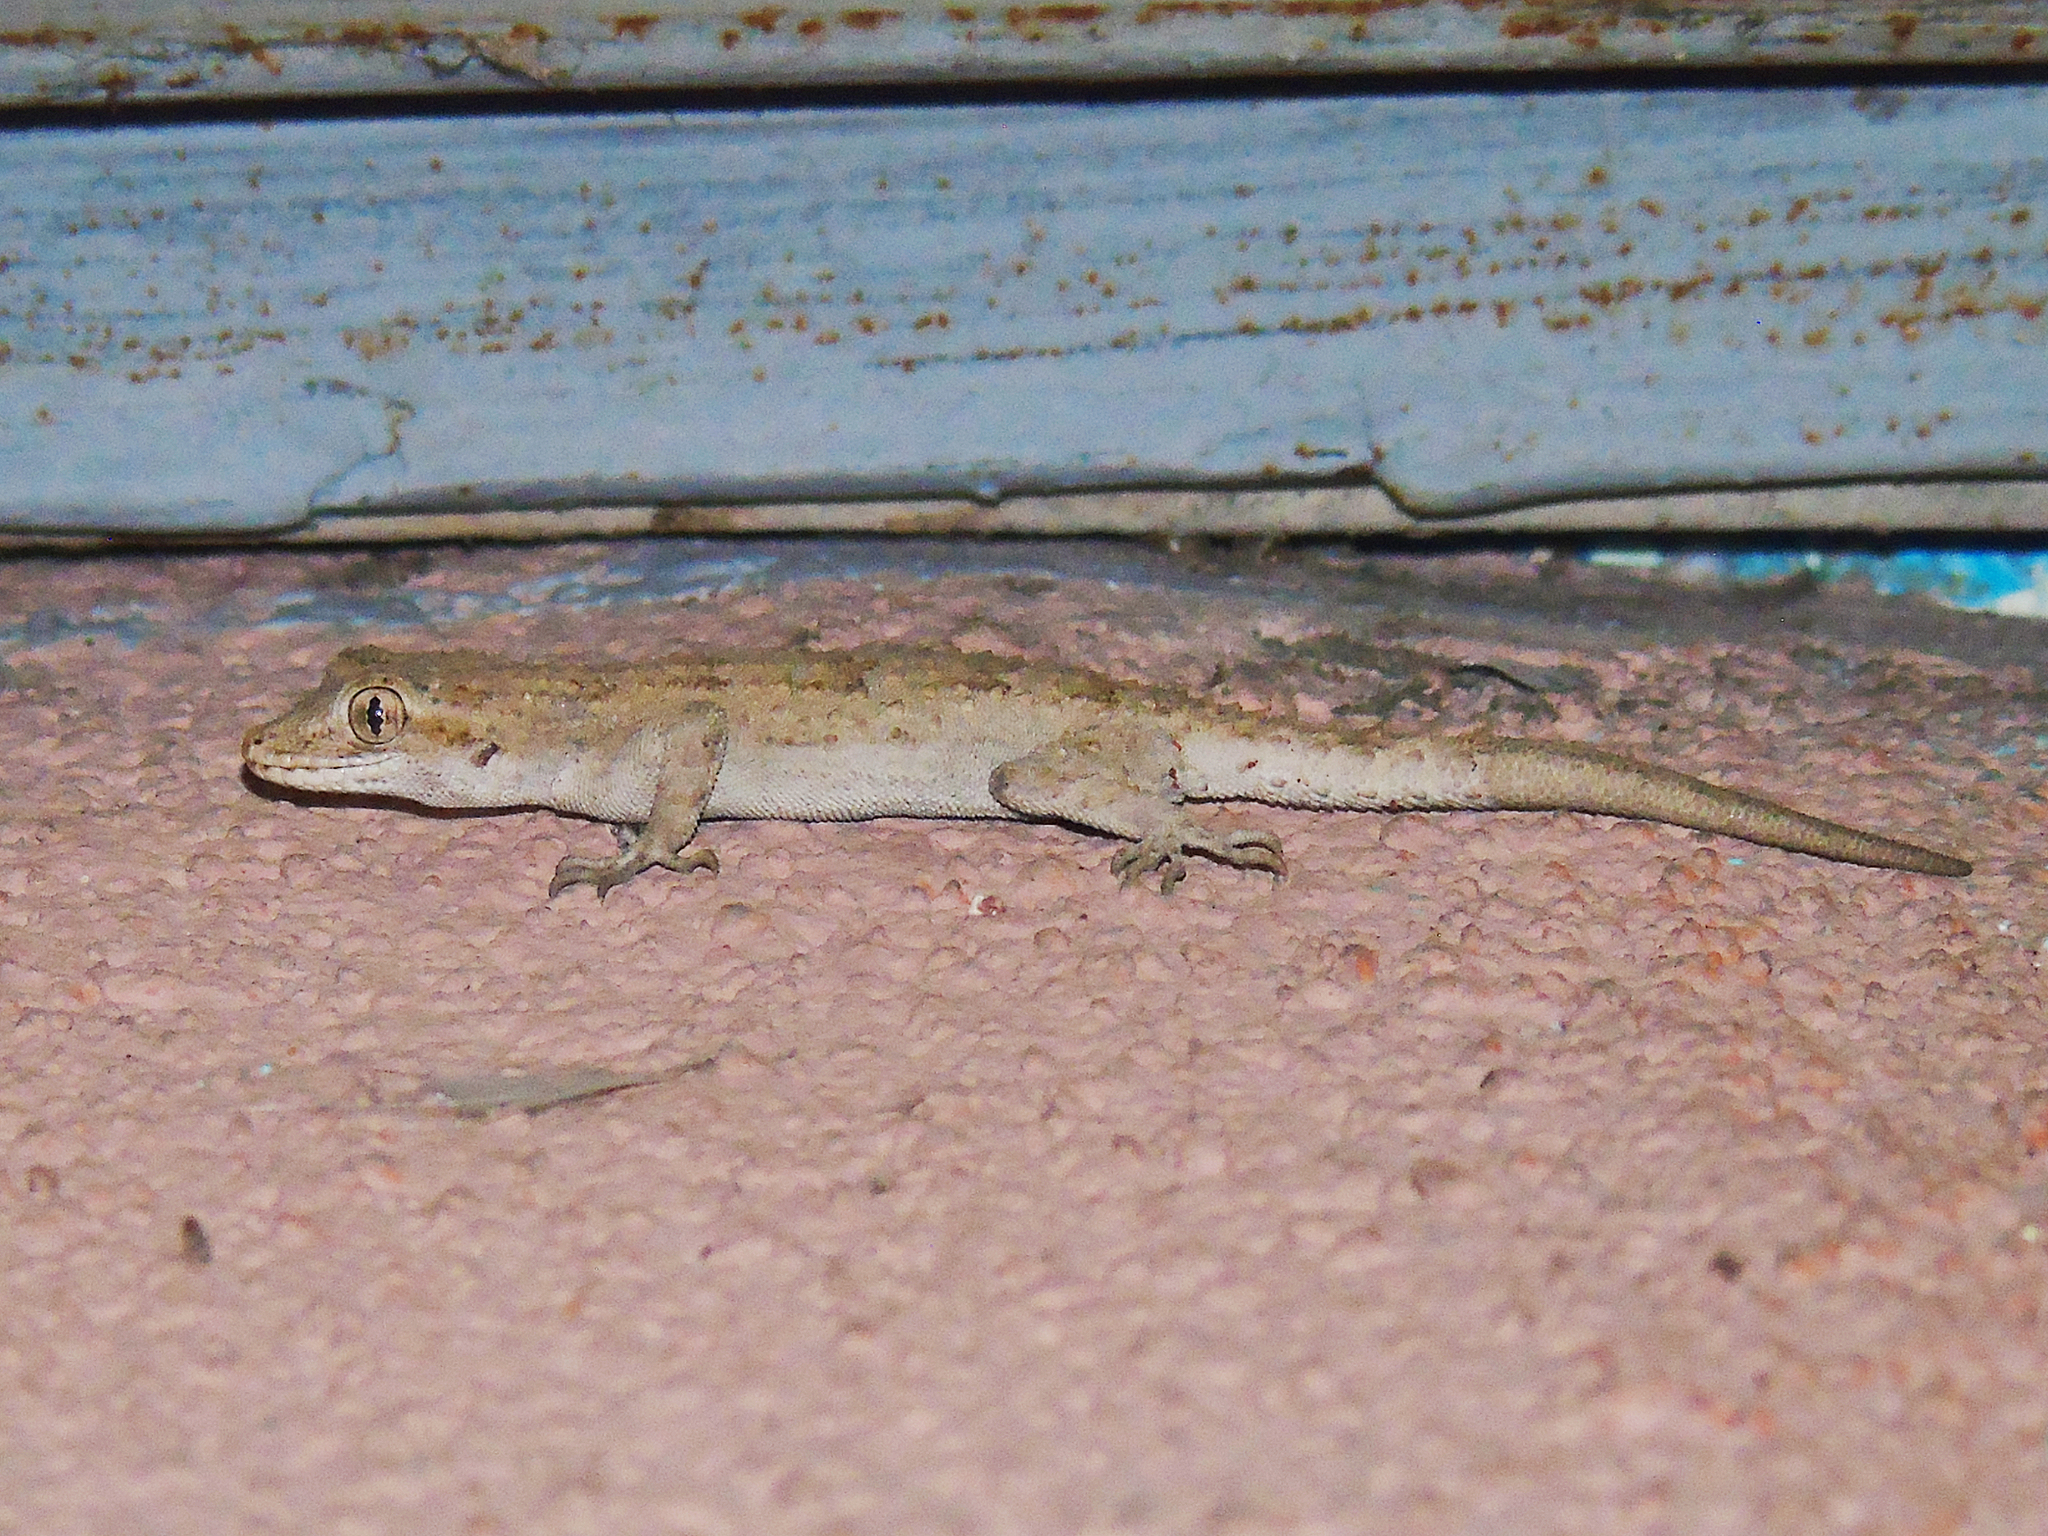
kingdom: Animalia
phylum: Chordata
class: Squamata
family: Gekkonidae
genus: Mediodactylus
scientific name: Mediodactylus russowii
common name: Grey thin-toed gecko
